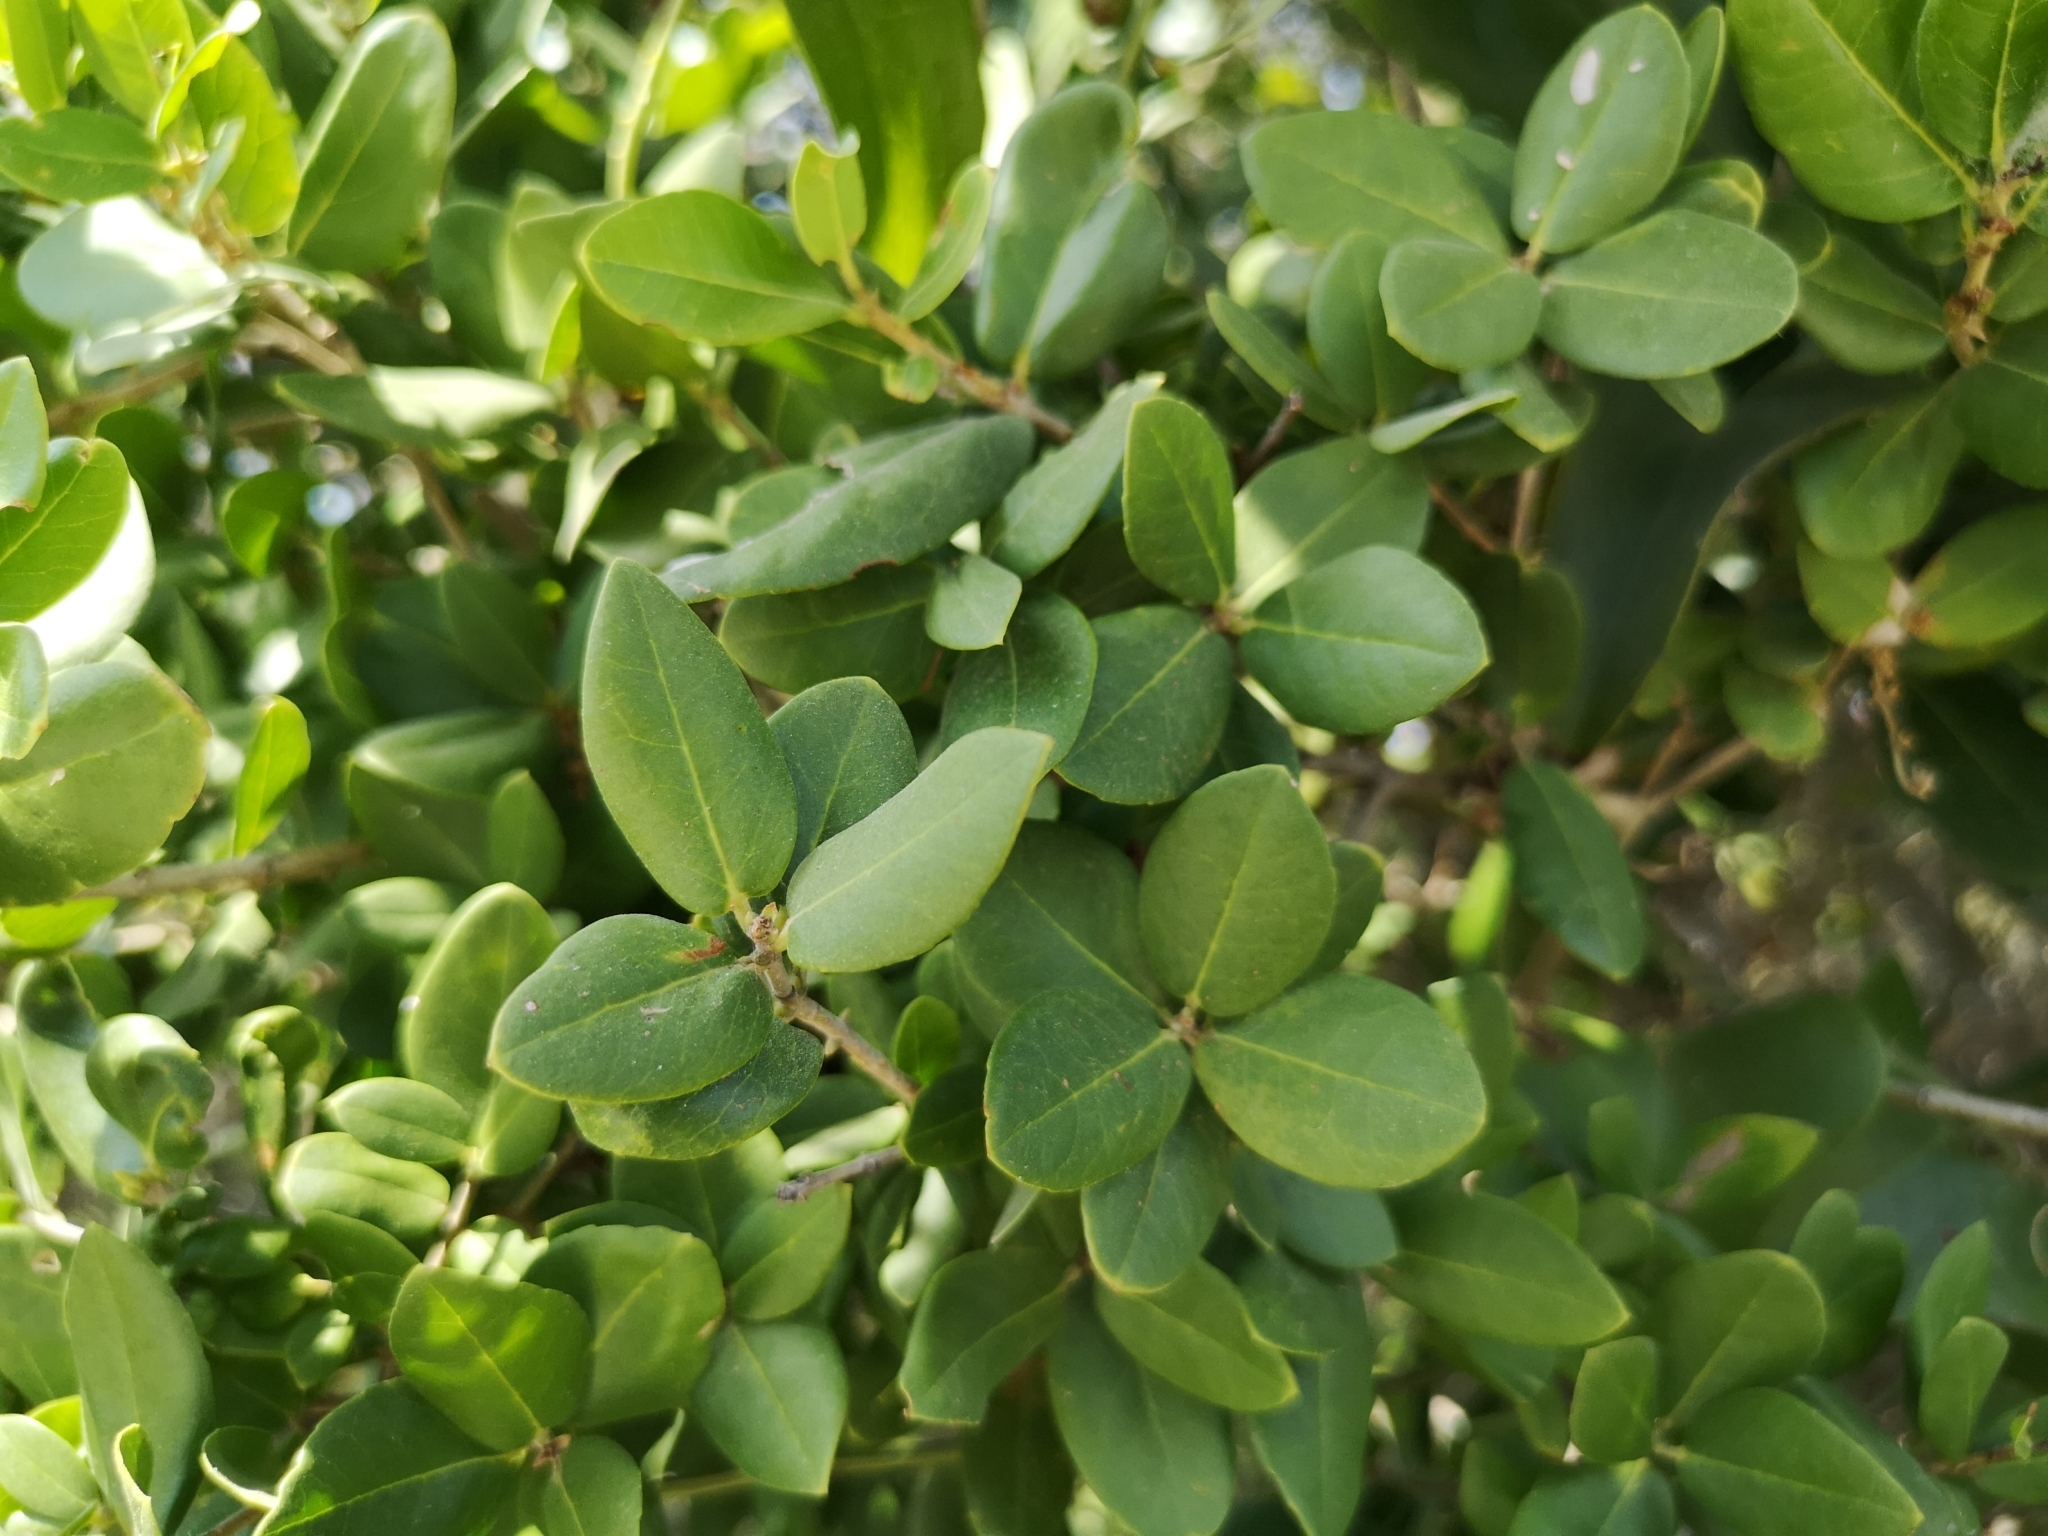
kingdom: Plantae
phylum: Tracheophyta
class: Magnoliopsida
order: Lamiales
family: Oleaceae
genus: Phillyrea
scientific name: Phillyrea latifolia
